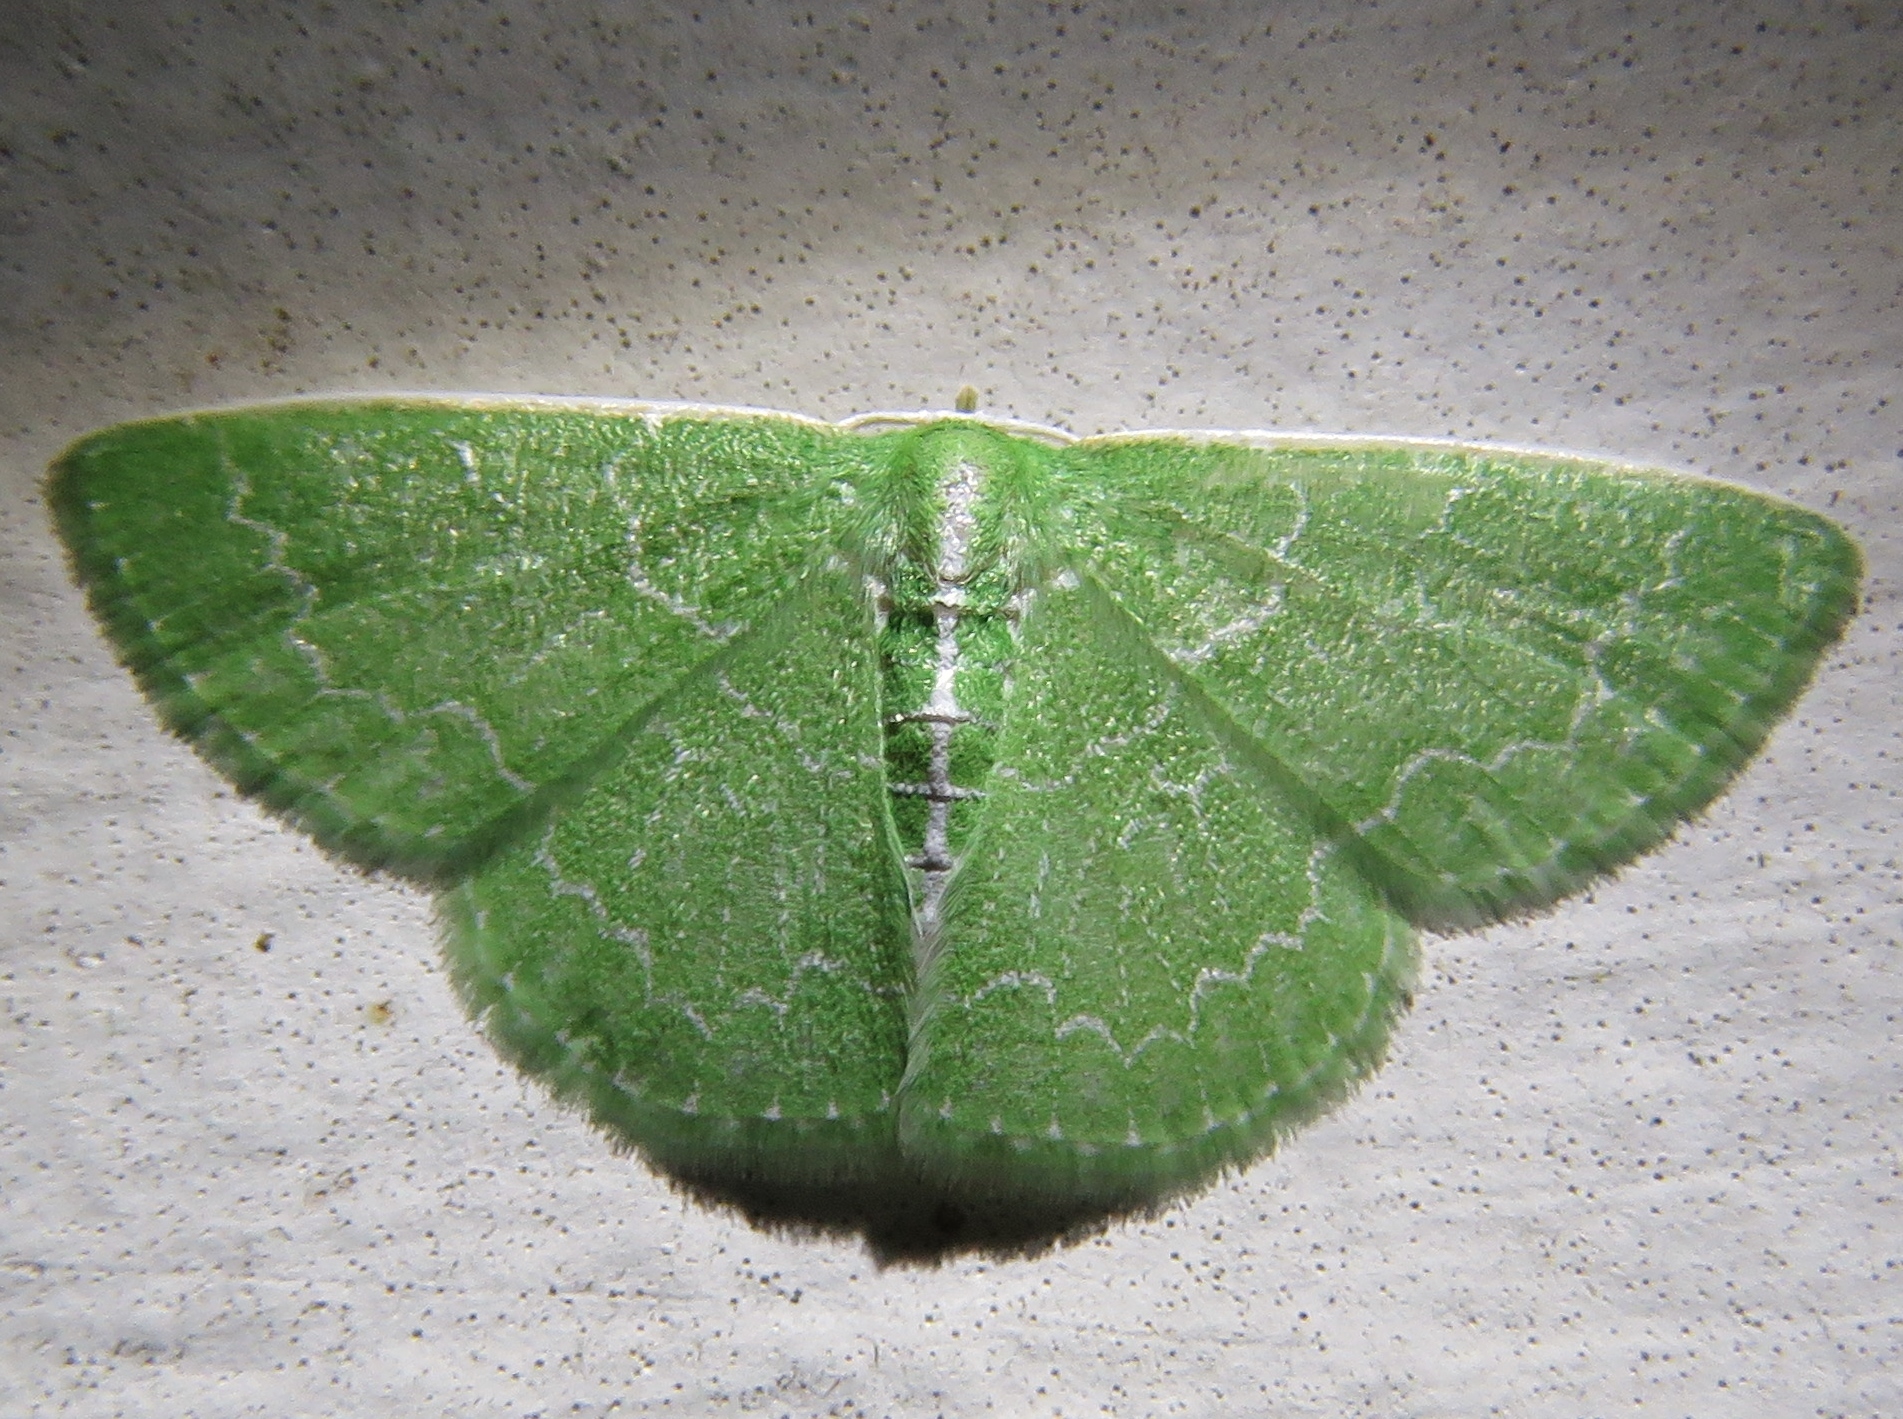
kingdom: Animalia
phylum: Arthropoda
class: Insecta
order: Lepidoptera
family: Geometridae
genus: Synchlora
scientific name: Synchlora frondaria
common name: Southern emerald
